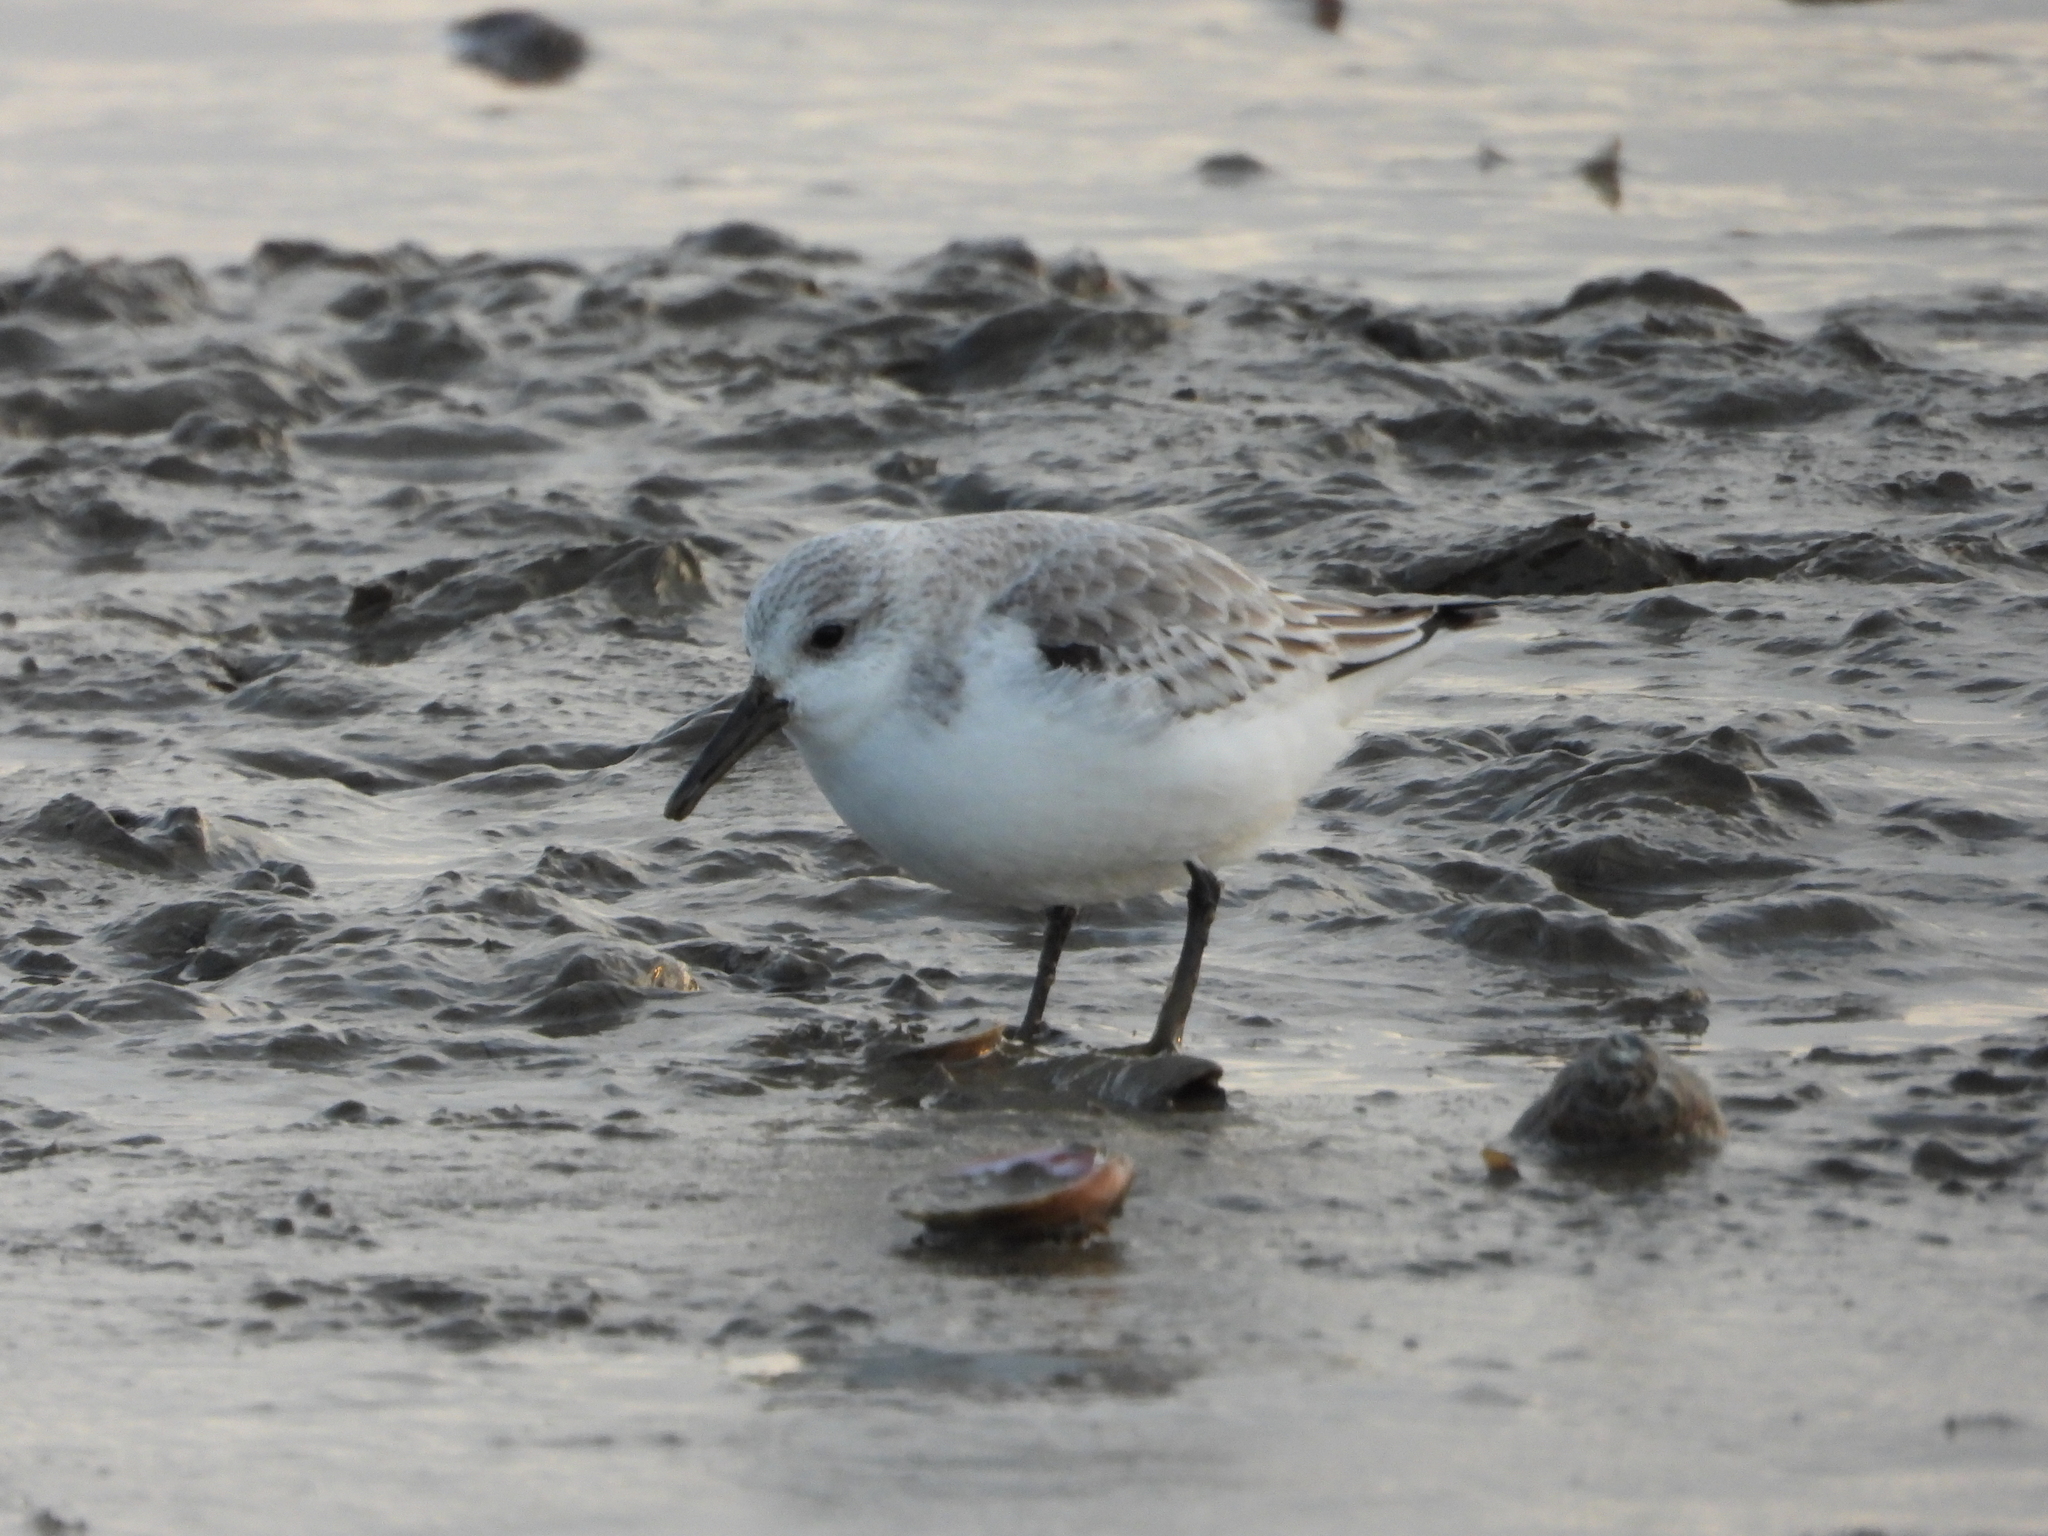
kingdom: Animalia
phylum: Chordata
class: Aves
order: Charadriiformes
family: Scolopacidae
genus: Calidris
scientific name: Calidris alba
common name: Sanderling
